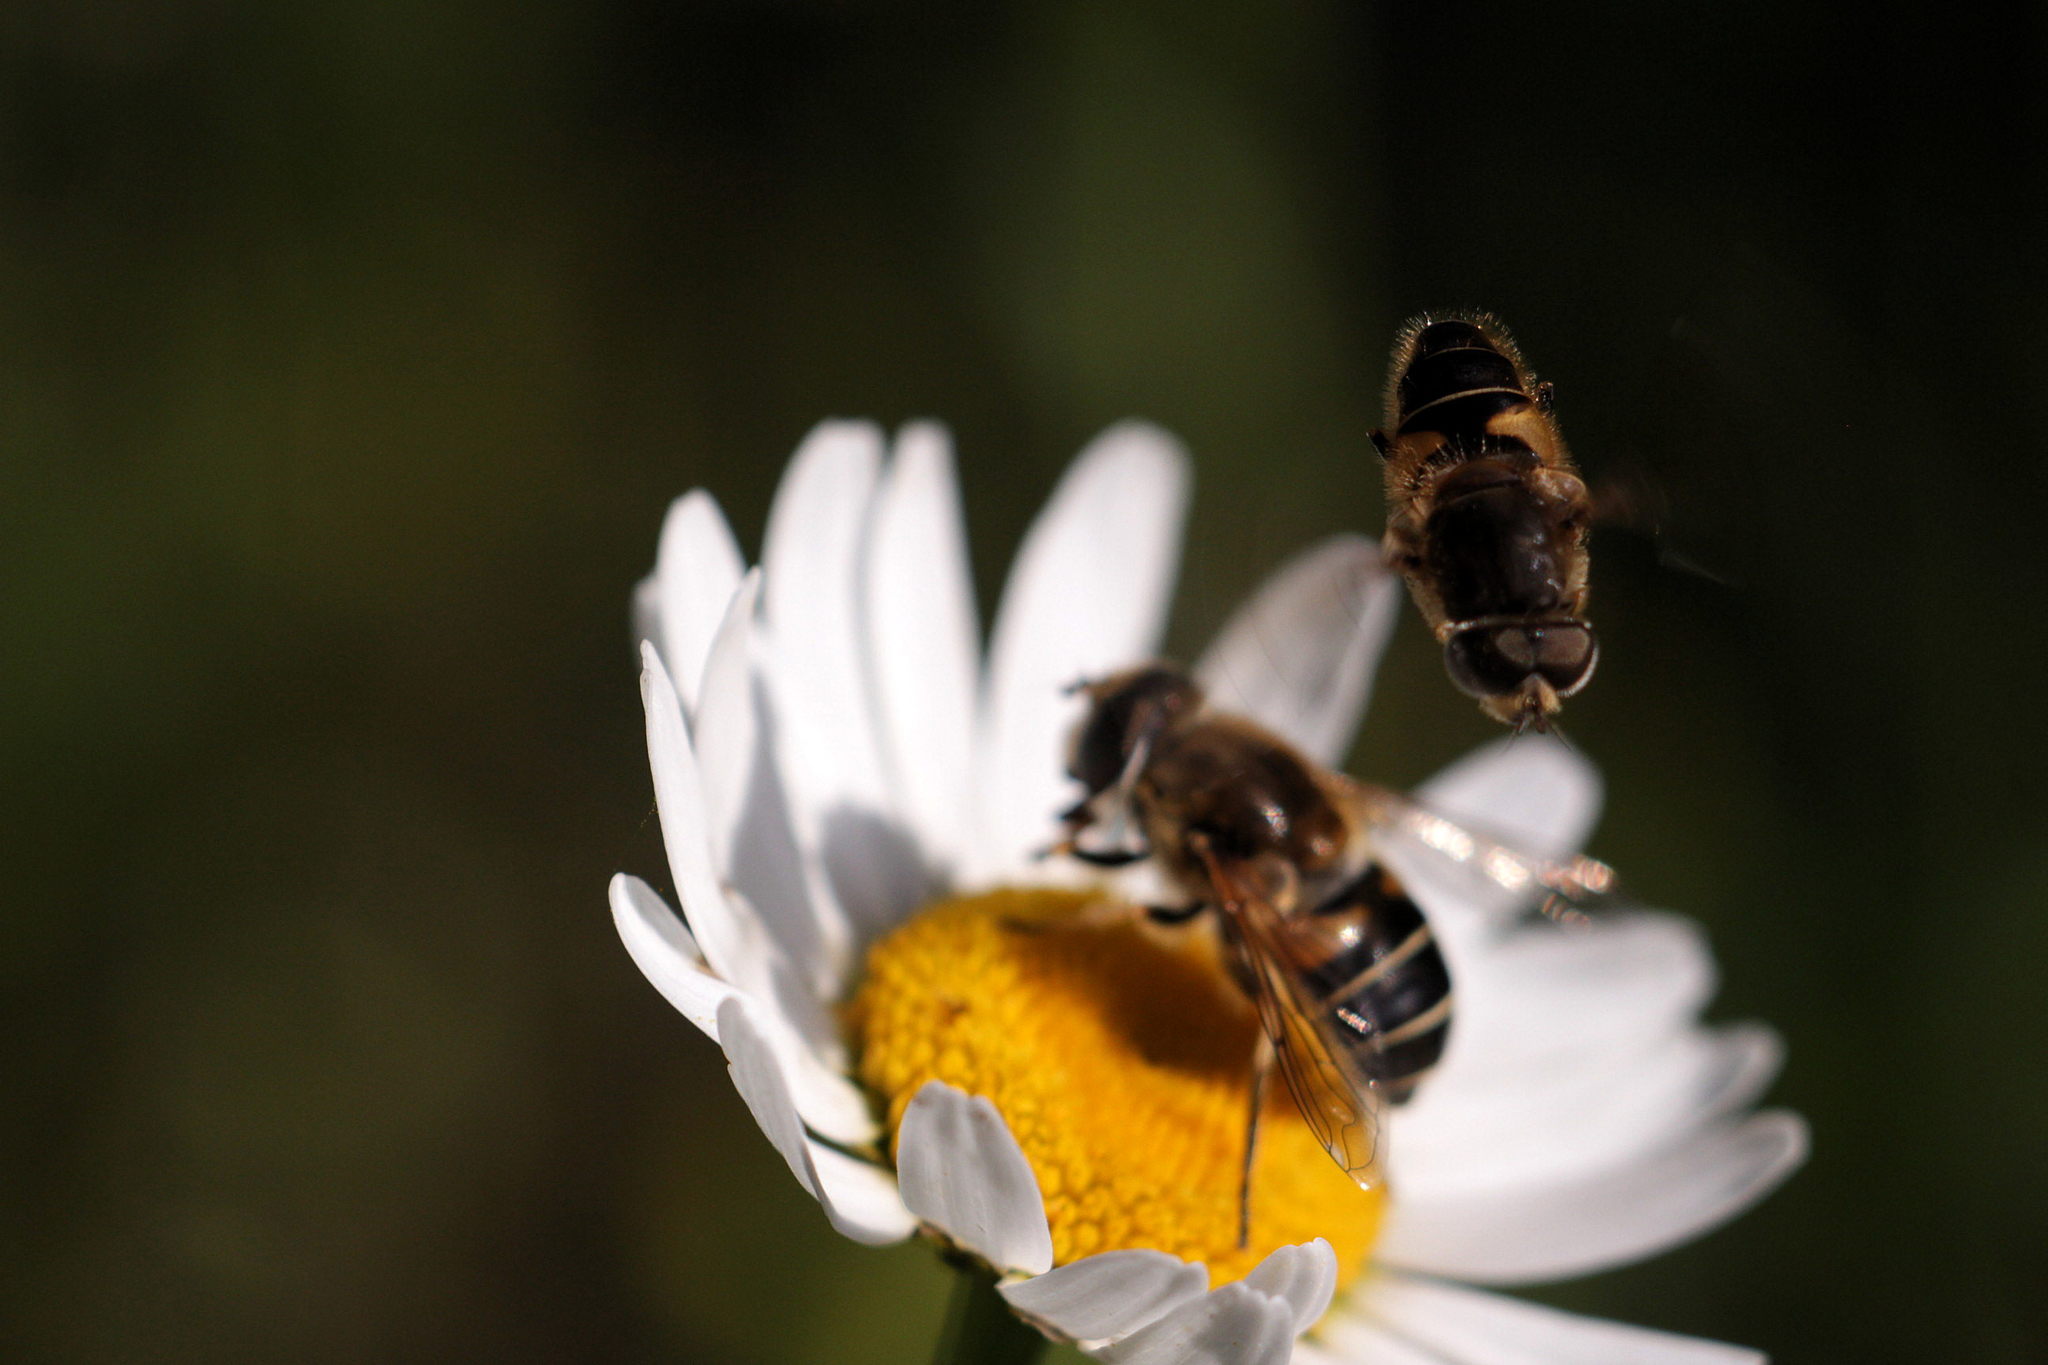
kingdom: Animalia
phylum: Arthropoda
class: Insecta
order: Diptera
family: Syrphidae
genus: Eristalis
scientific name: Eristalis nemorum
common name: Orange-spined drone fly
